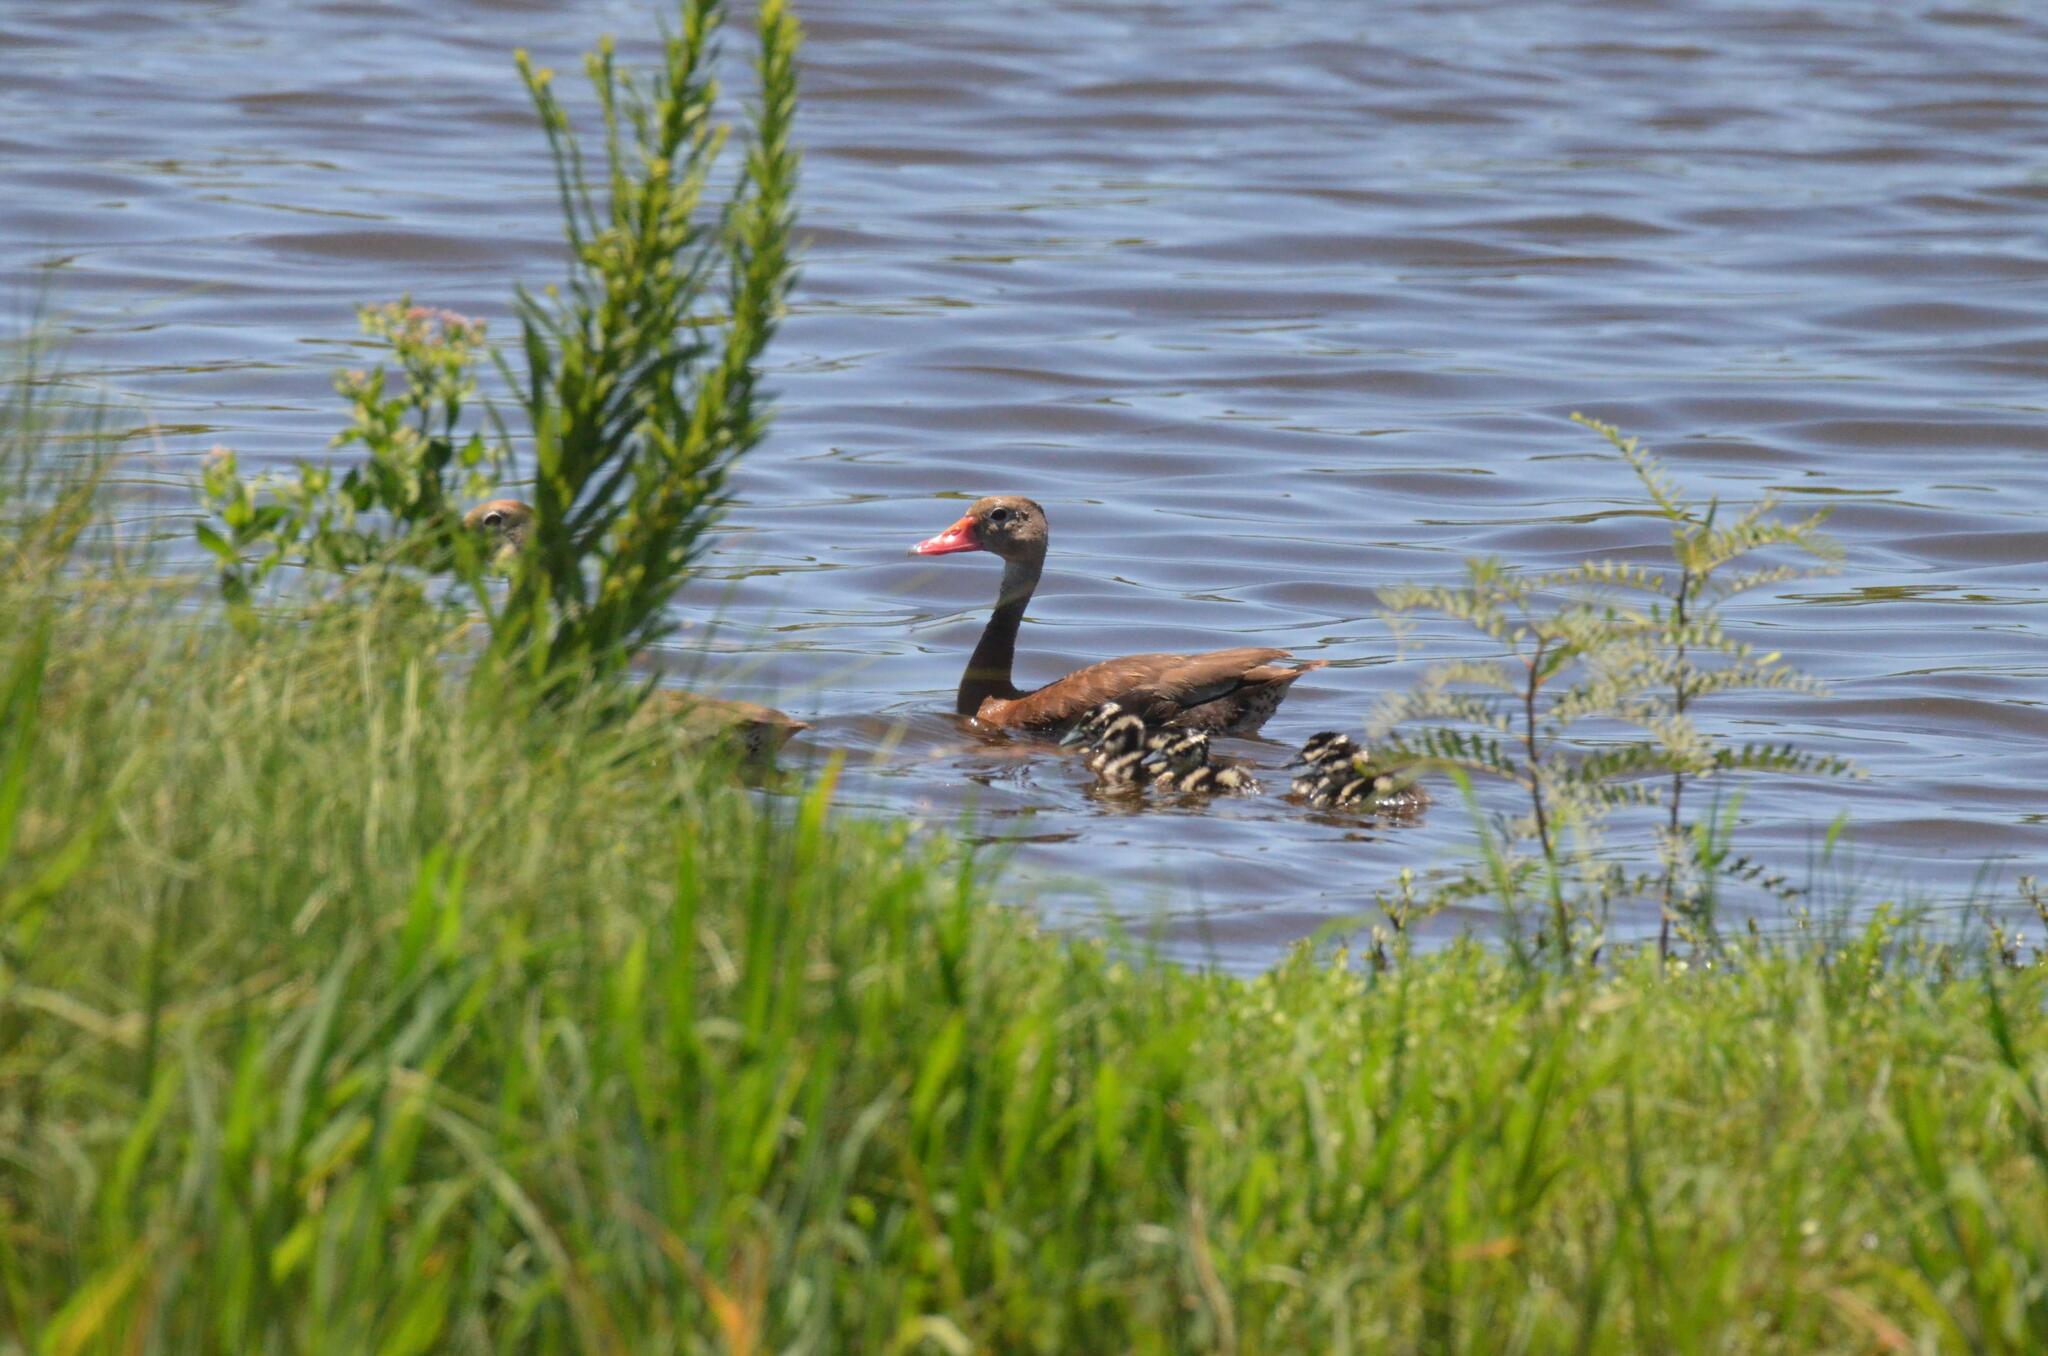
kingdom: Animalia
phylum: Chordata
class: Aves
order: Anseriformes
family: Anatidae
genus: Dendrocygna
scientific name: Dendrocygna autumnalis
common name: Black-bellied whistling duck
